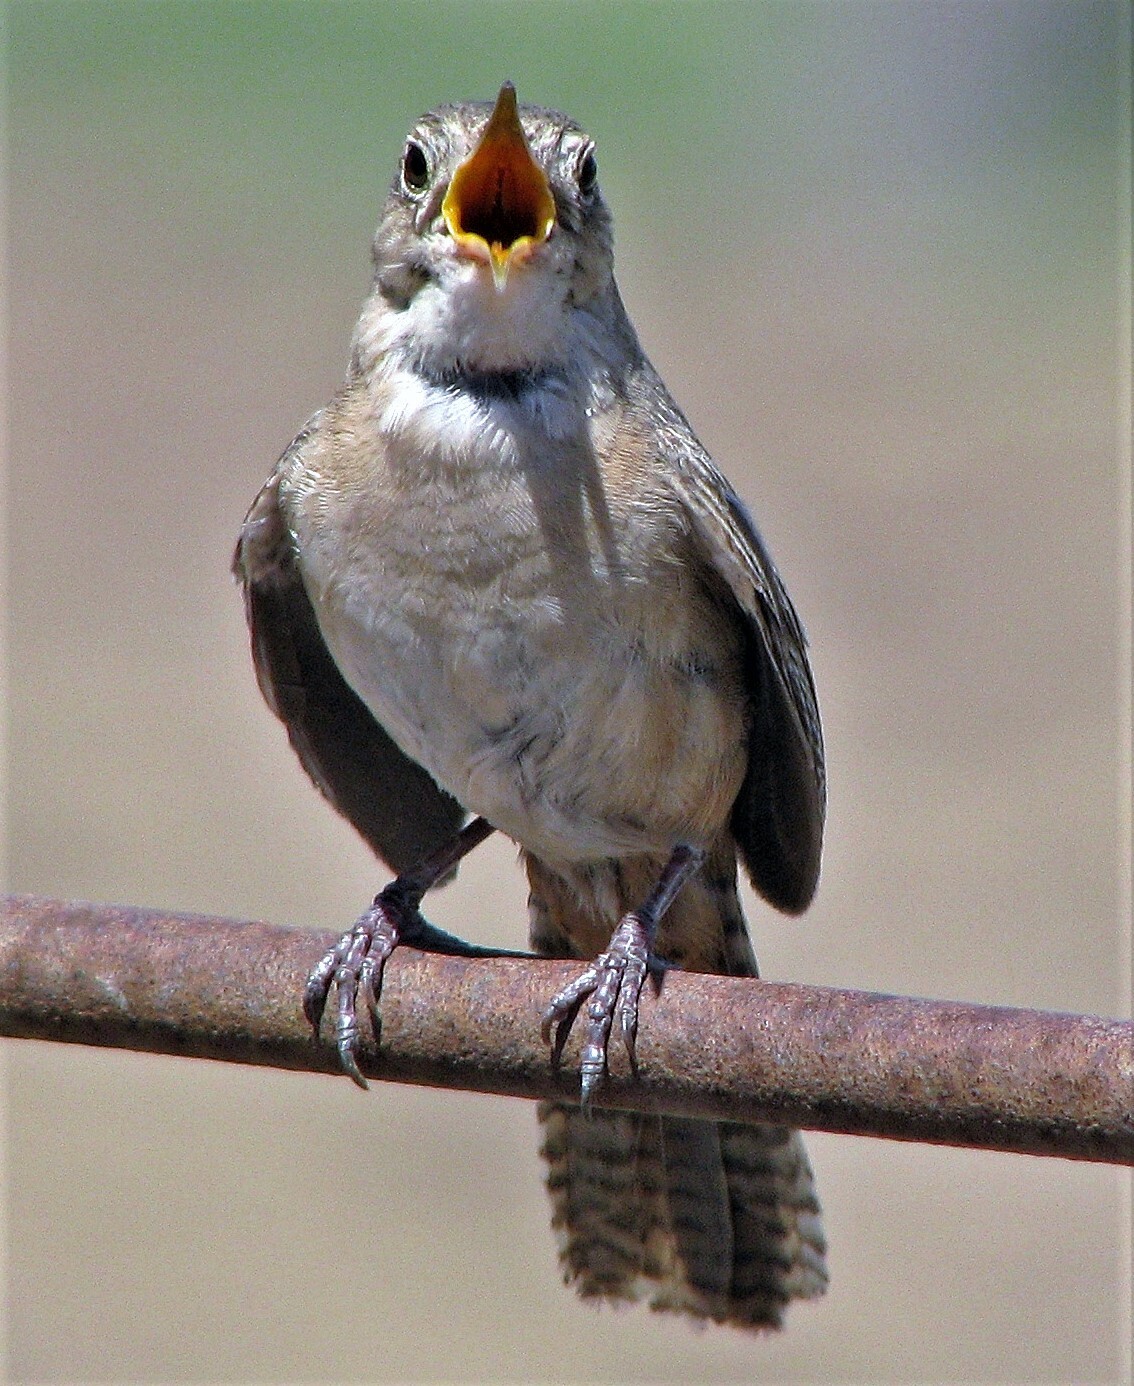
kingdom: Animalia
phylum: Chordata
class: Aves
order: Passeriformes
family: Troglodytidae
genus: Troglodytes
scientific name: Troglodytes aedon
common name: House wren
